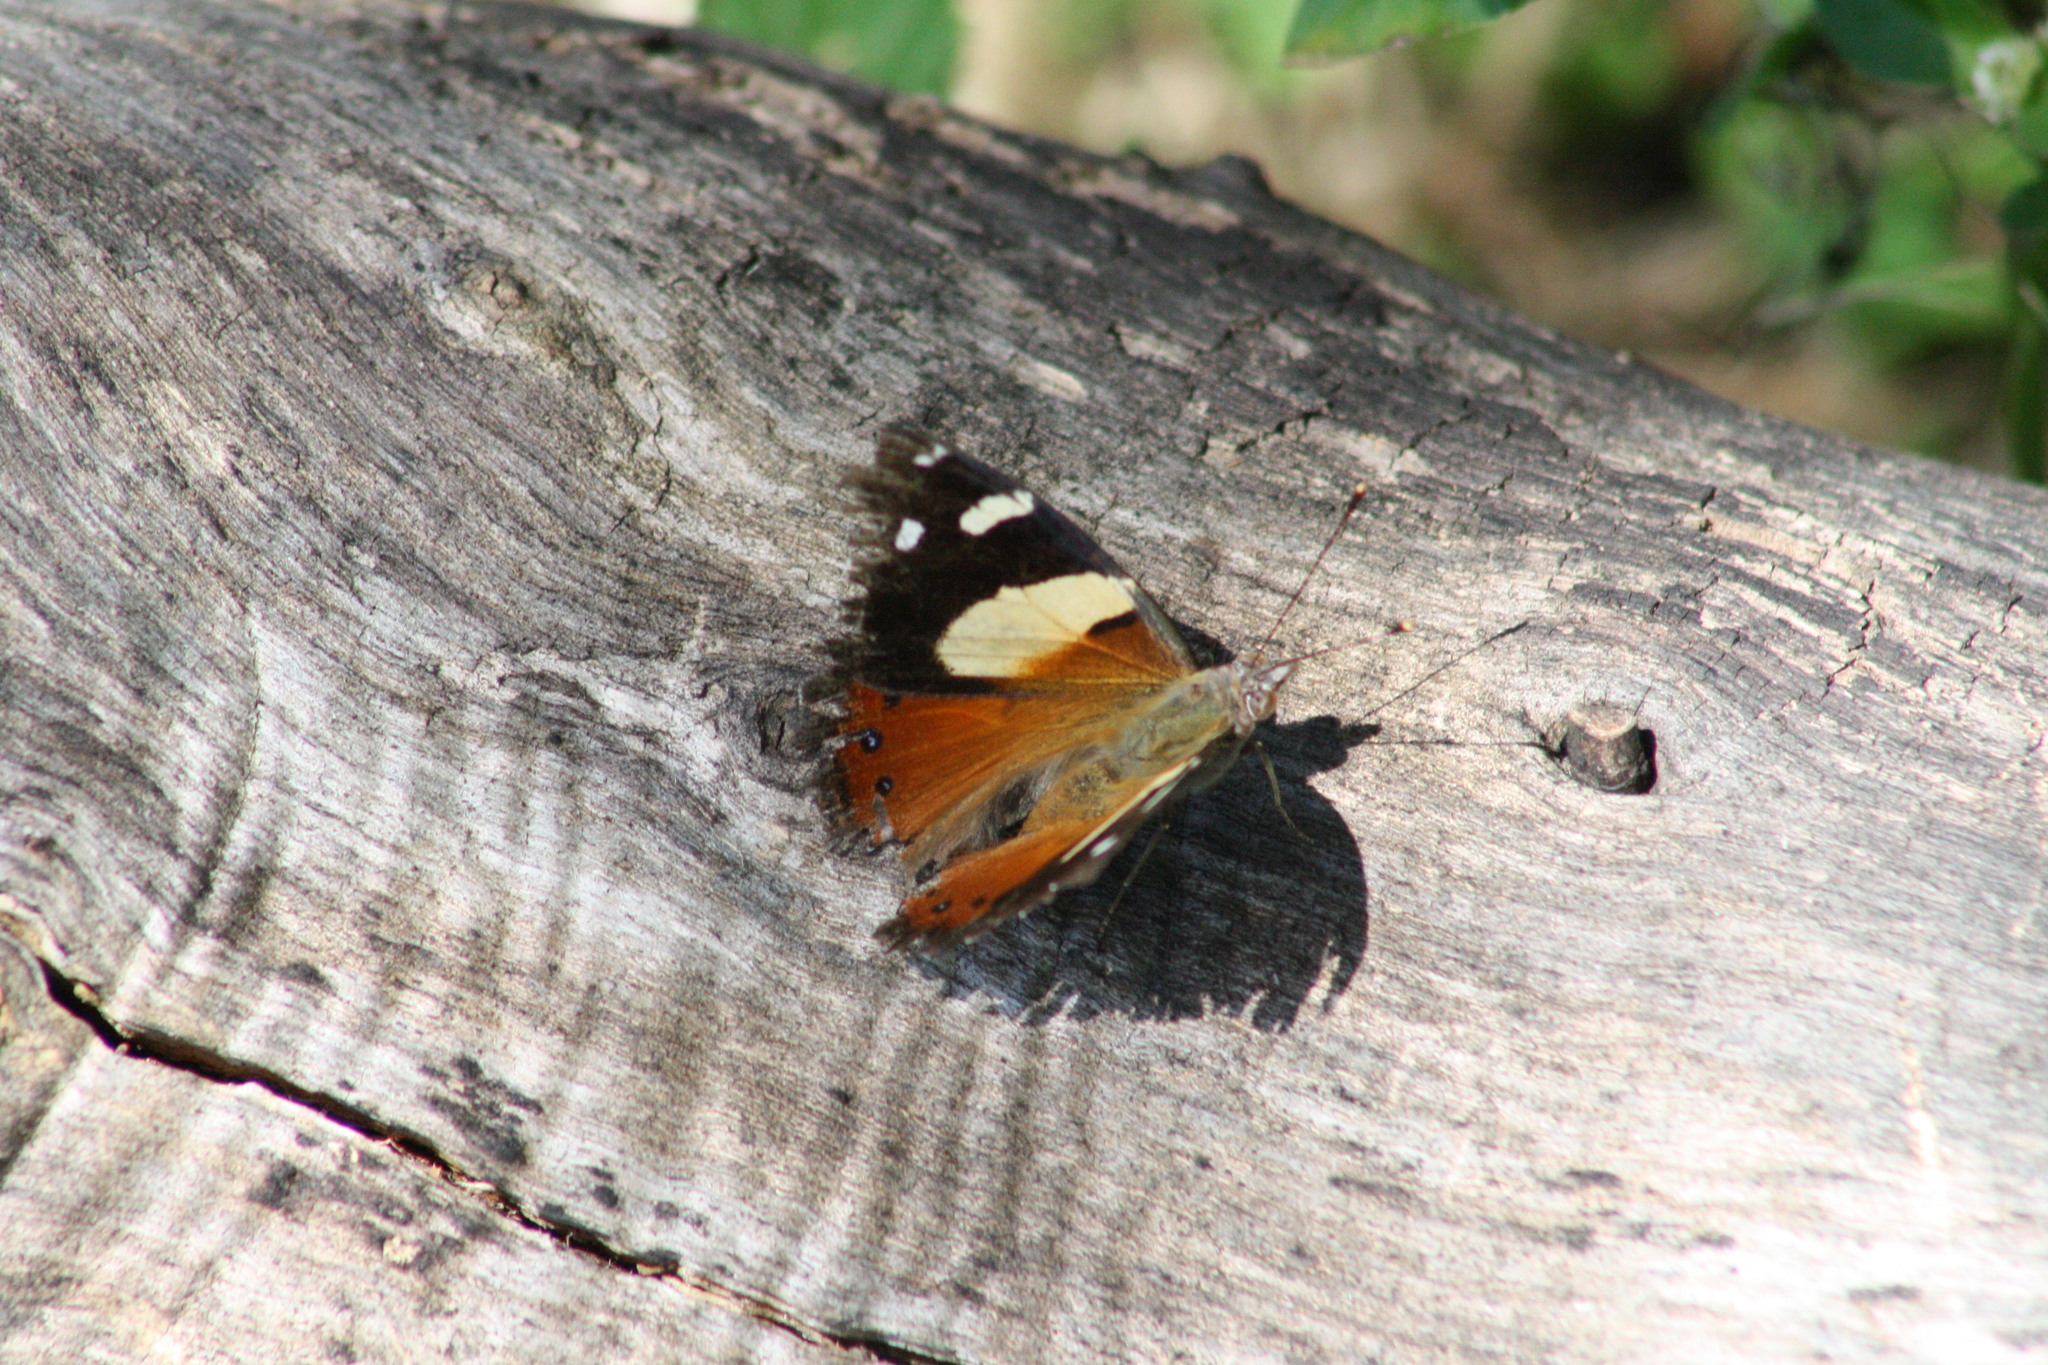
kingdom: Animalia
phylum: Arthropoda
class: Insecta
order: Lepidoptera
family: Nymphalidae
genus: Vanessa
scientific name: Vanessa itea
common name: Yellow admiral
